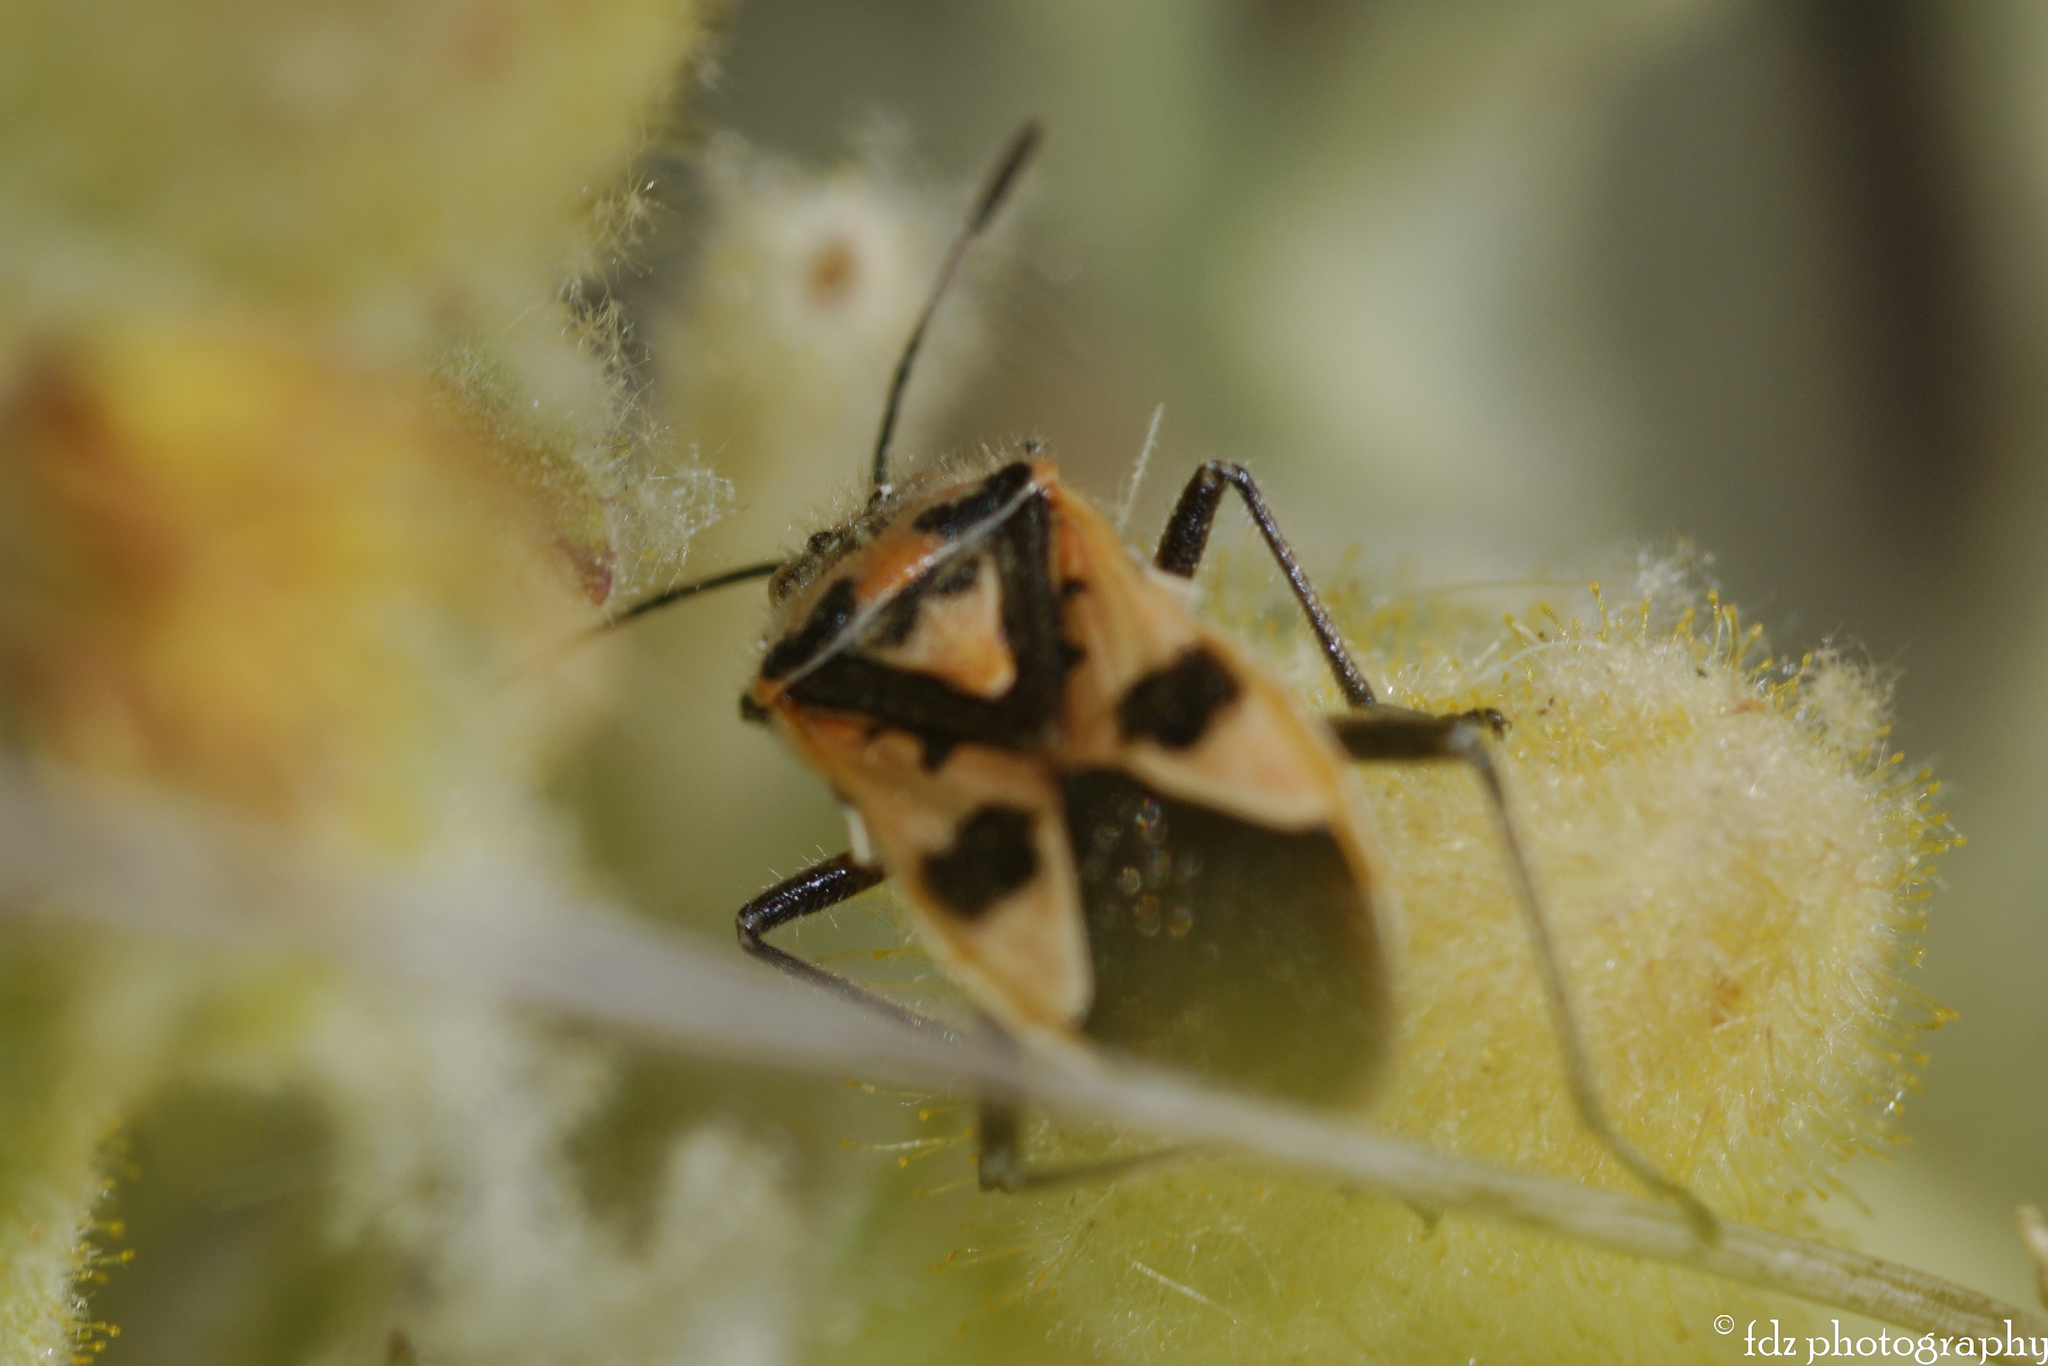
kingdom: Animalia
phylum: Arthropoda
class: Insecta
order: Hemiptera
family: Rhopalidae
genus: Corizus
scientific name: Corizus hyoscyami
